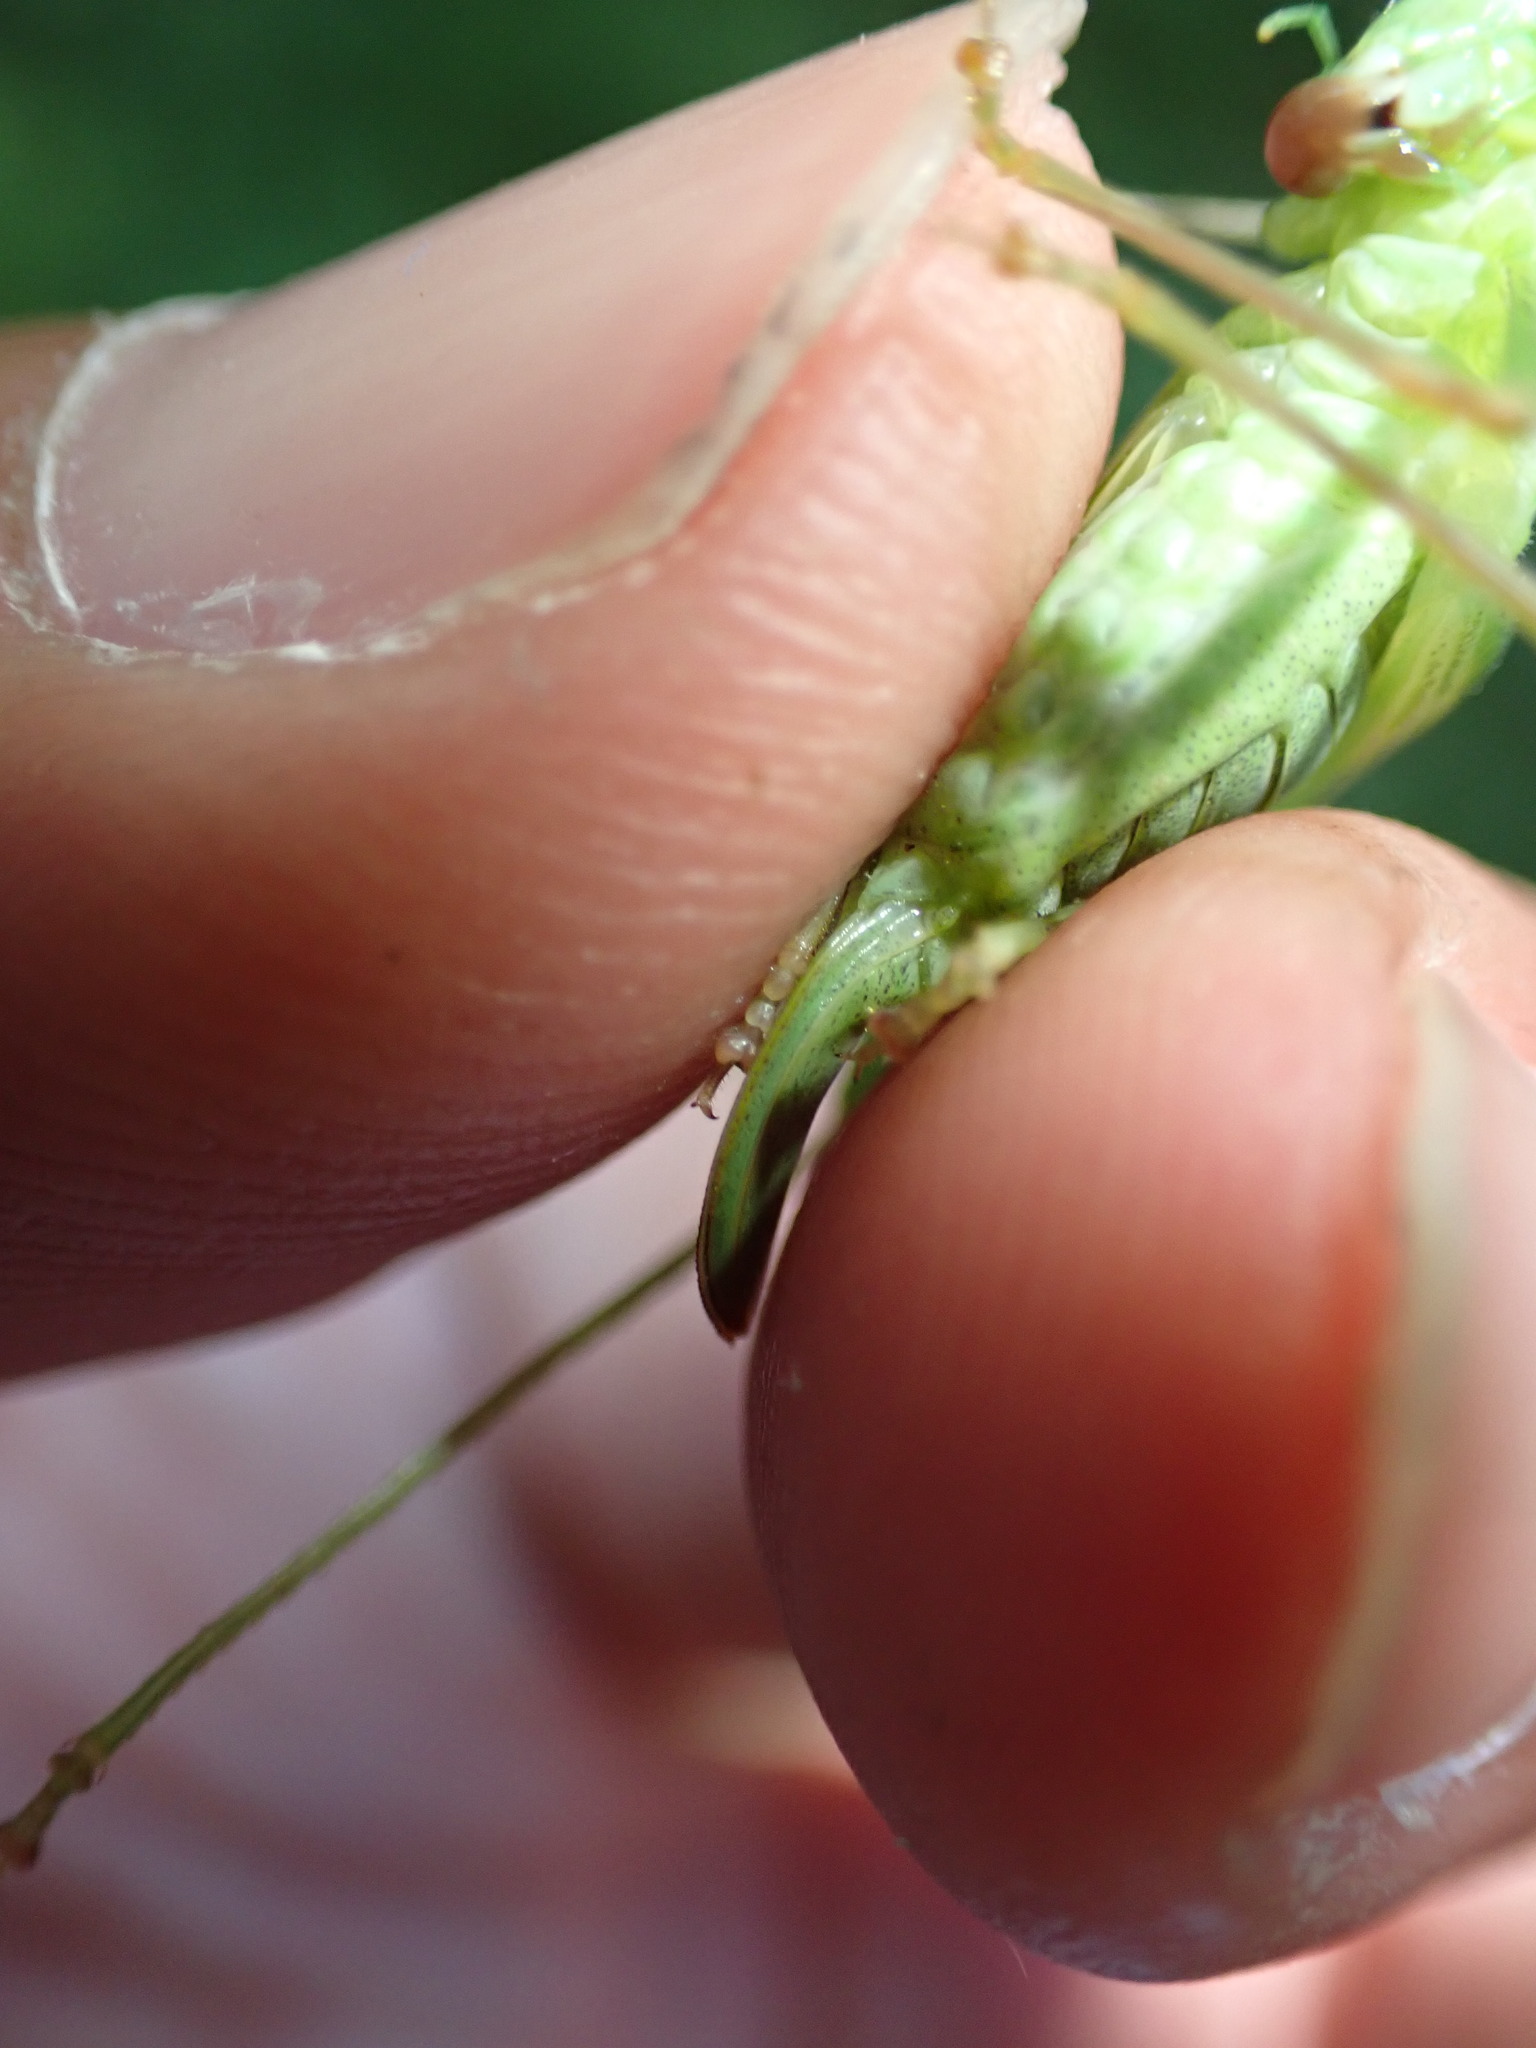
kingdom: Animalia
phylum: Arthropoda
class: Insecta
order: Orthoptera
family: Tettigoniidae
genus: Leptophyes
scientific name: Leptophyes punctatissima
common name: Speckled bush-cricket
